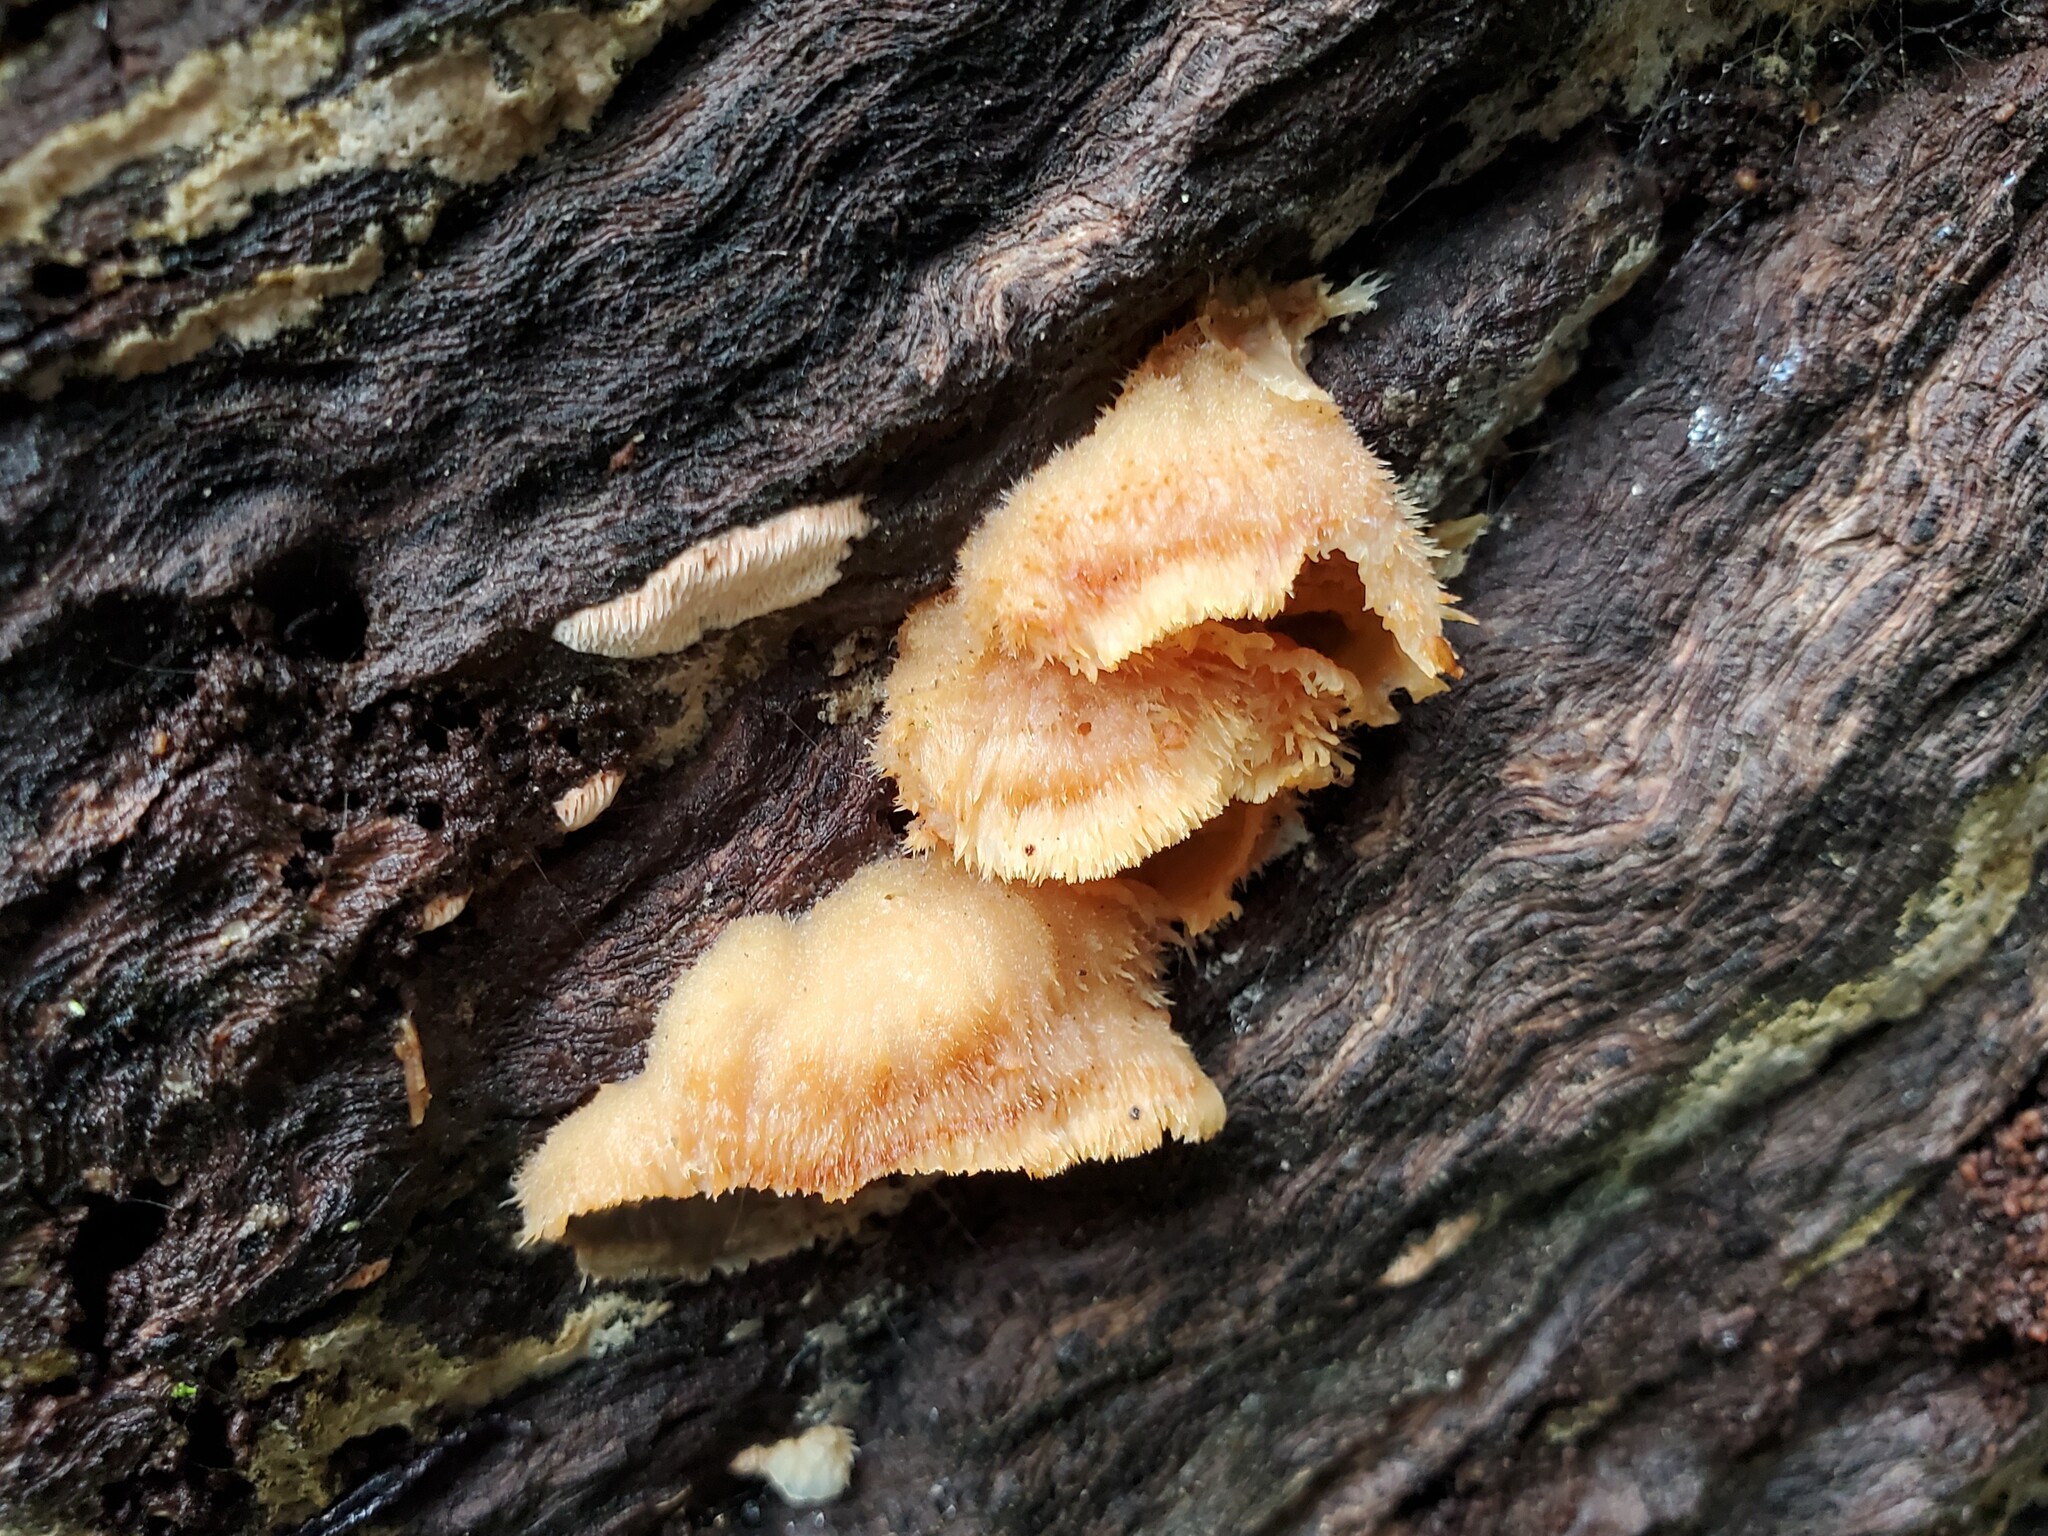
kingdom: Fungi
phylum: Basidiomycota
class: Agaricomycetes
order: Polyporales
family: Meruliaceae
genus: Phlebia
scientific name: Phlebia tremellosa
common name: Jelly rot
